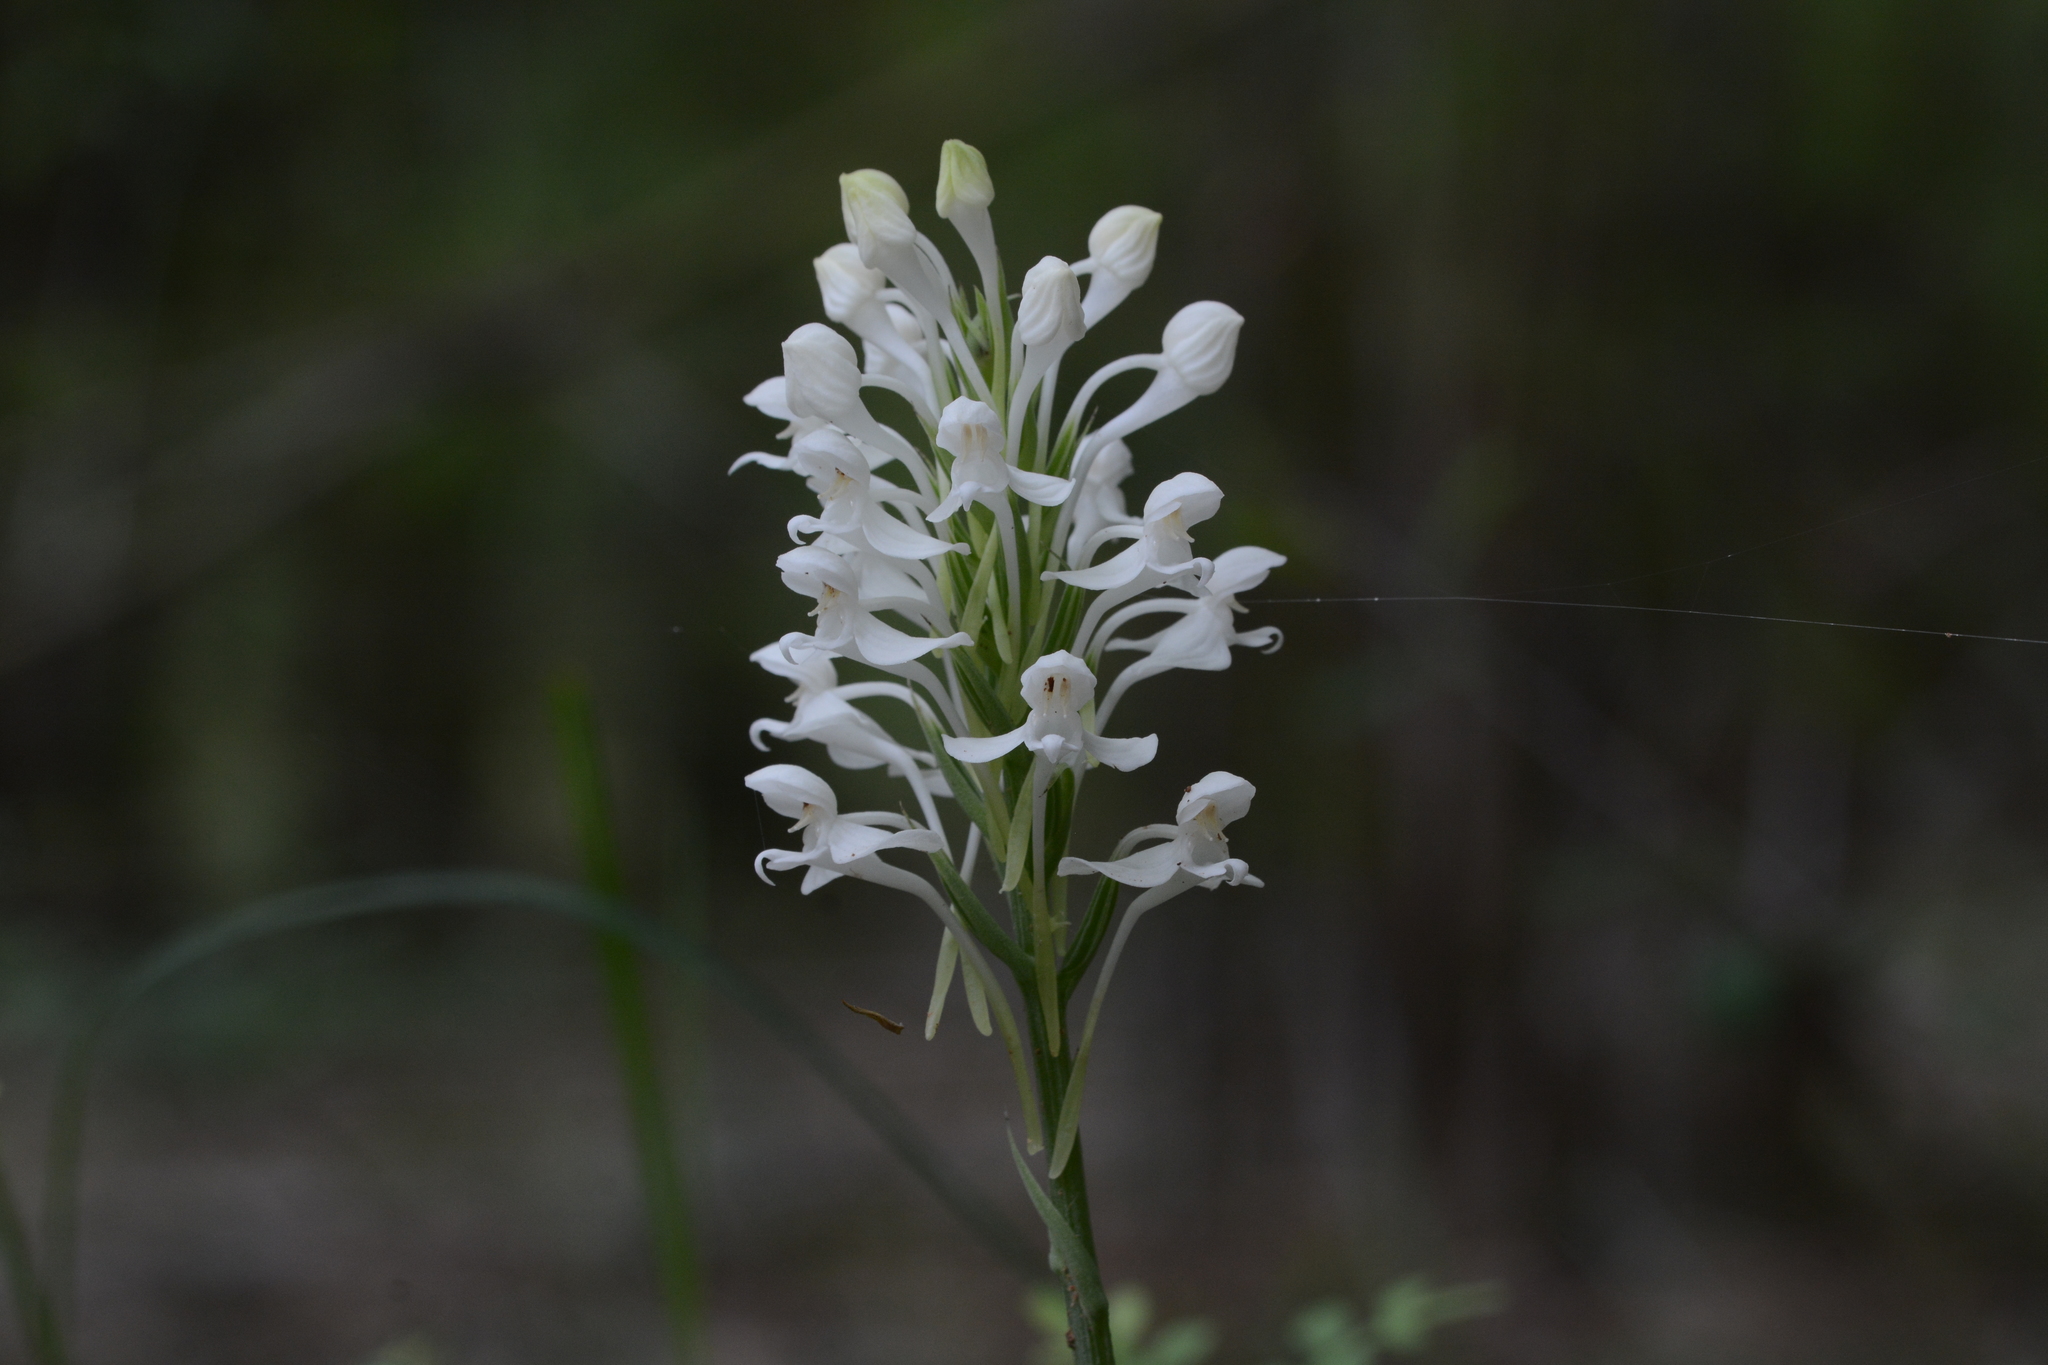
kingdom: Plantae
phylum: Tracheophyta
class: Liliopsida
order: Asparagales
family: Orchidaceae
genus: Habenaria
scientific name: Habenaria roxburghii
